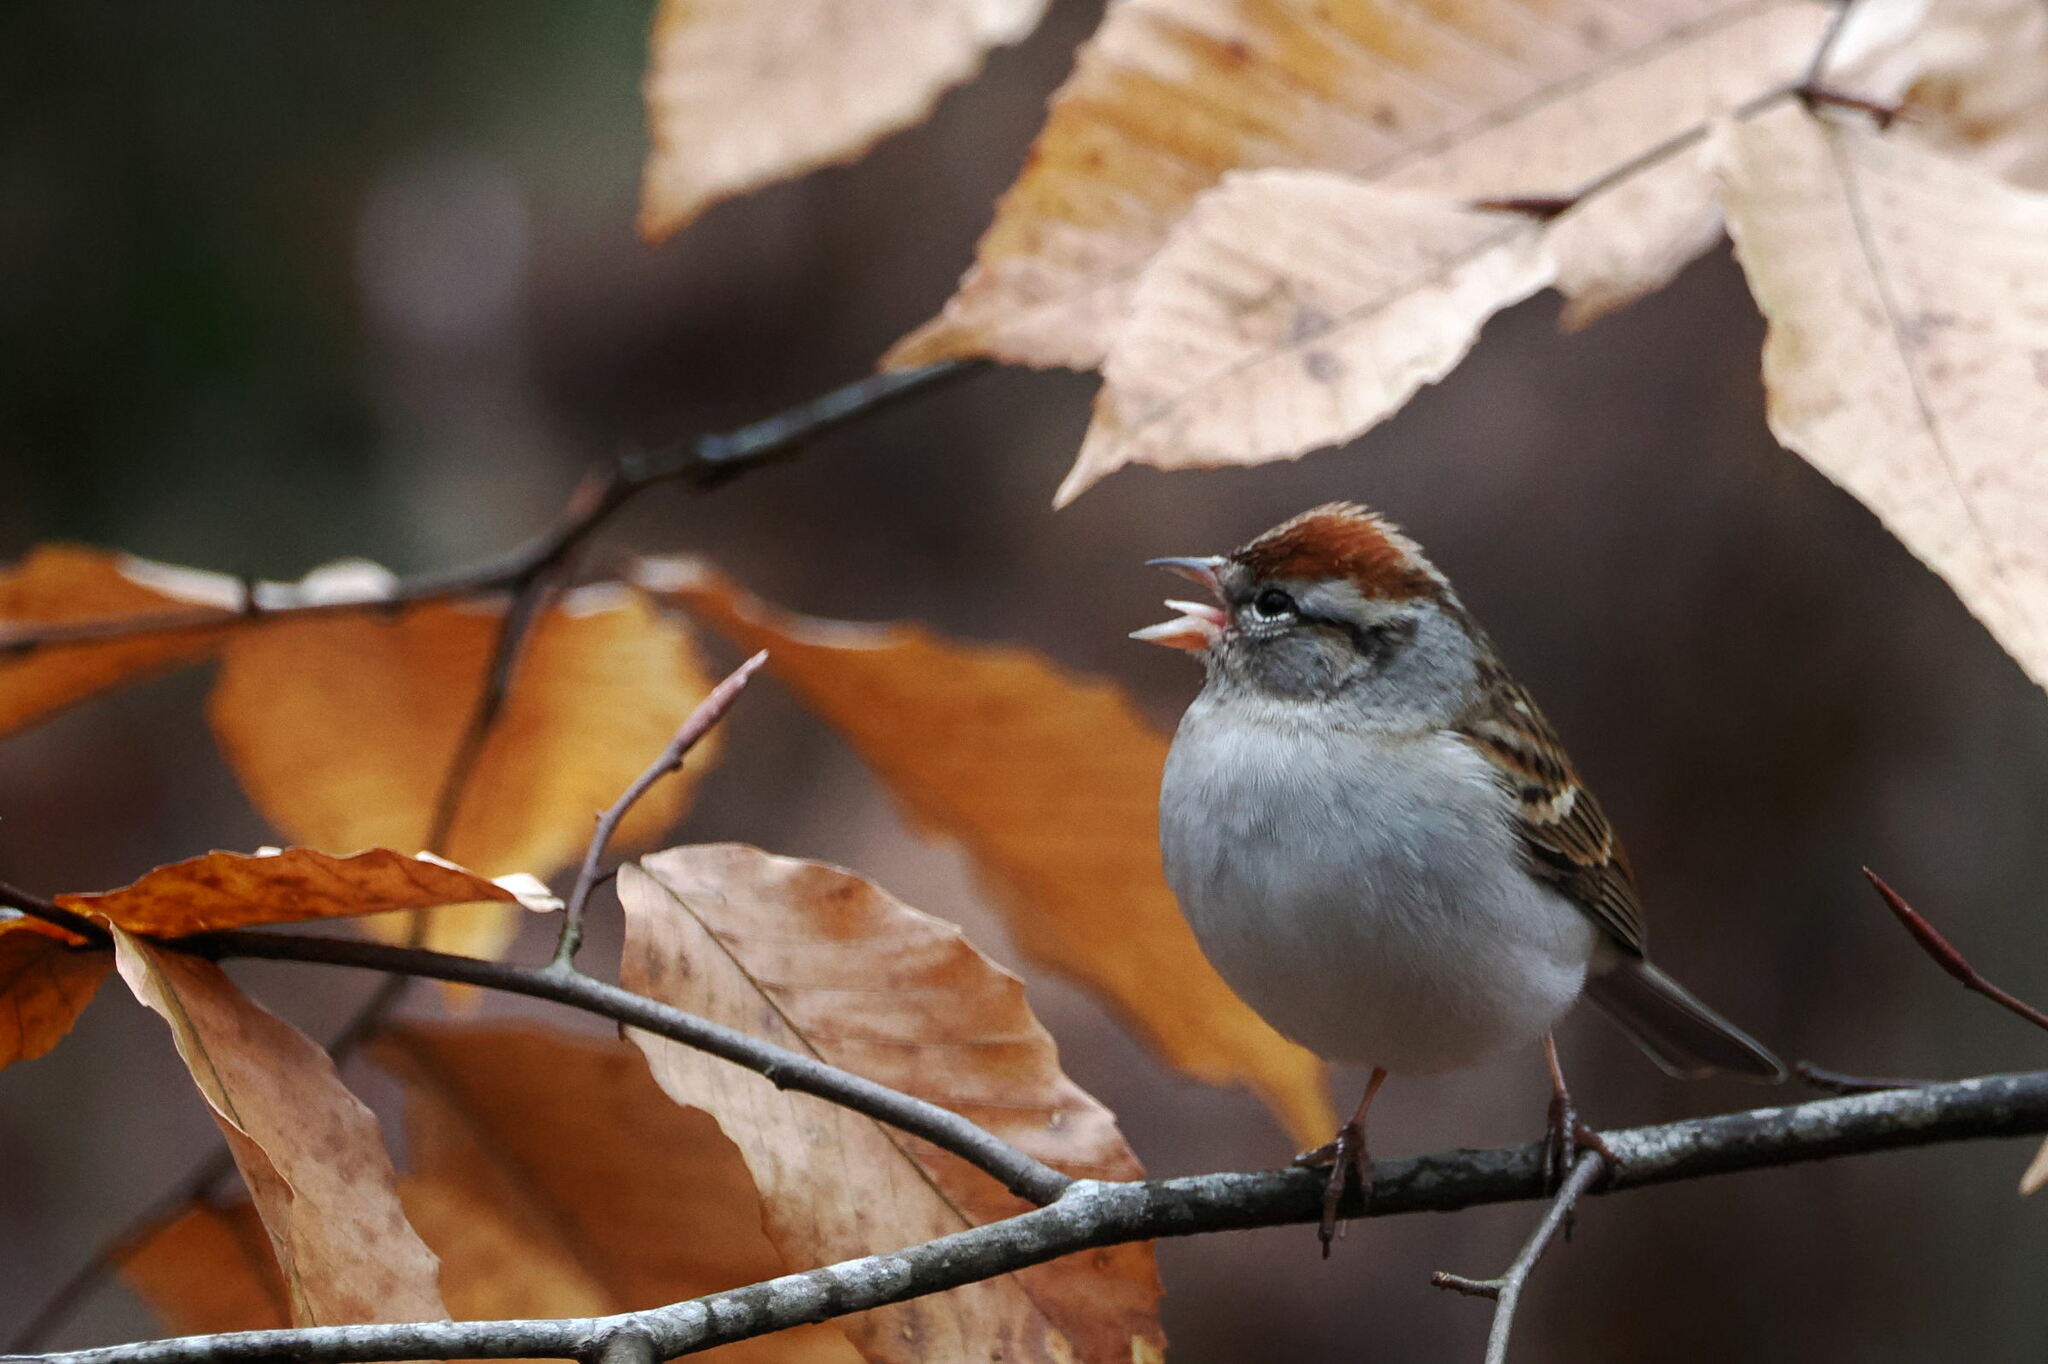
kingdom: Animalia
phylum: Chordata
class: Aves
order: Passeriformes
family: Passerellidae
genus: Spizella
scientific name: Spizella passerina
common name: Chipping sparrow
